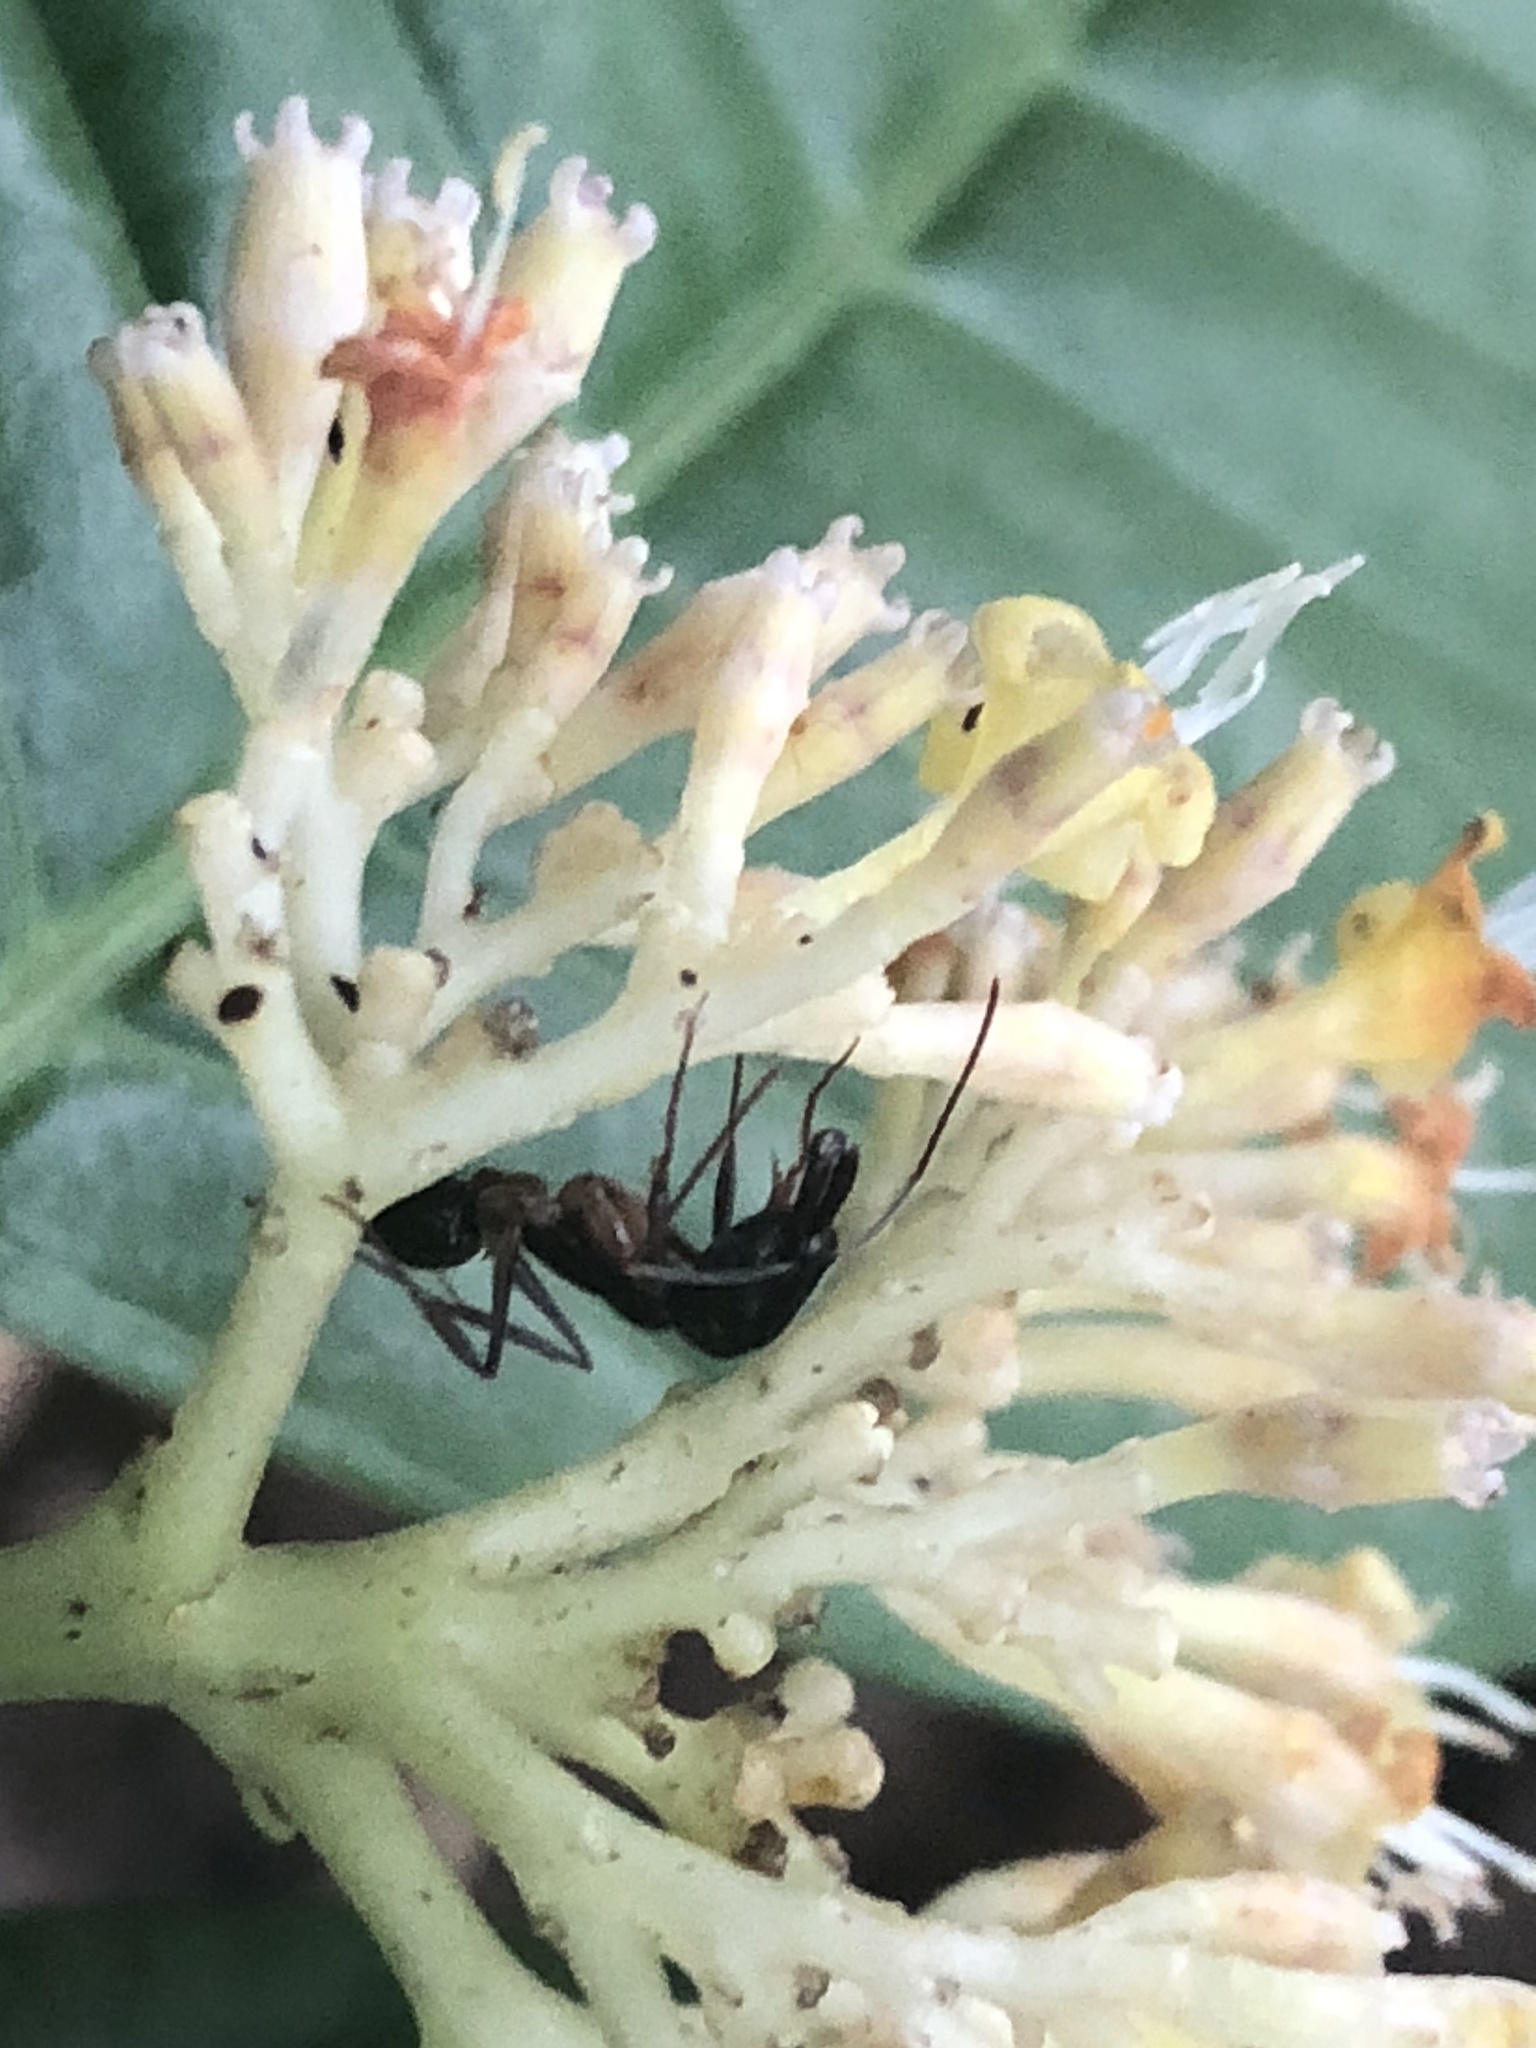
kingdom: Plantae
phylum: Tracheophyta
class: Magnoliopsida
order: Gentianales
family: Rubiaceae
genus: Palicourea
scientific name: Palicourea didymocarpos
